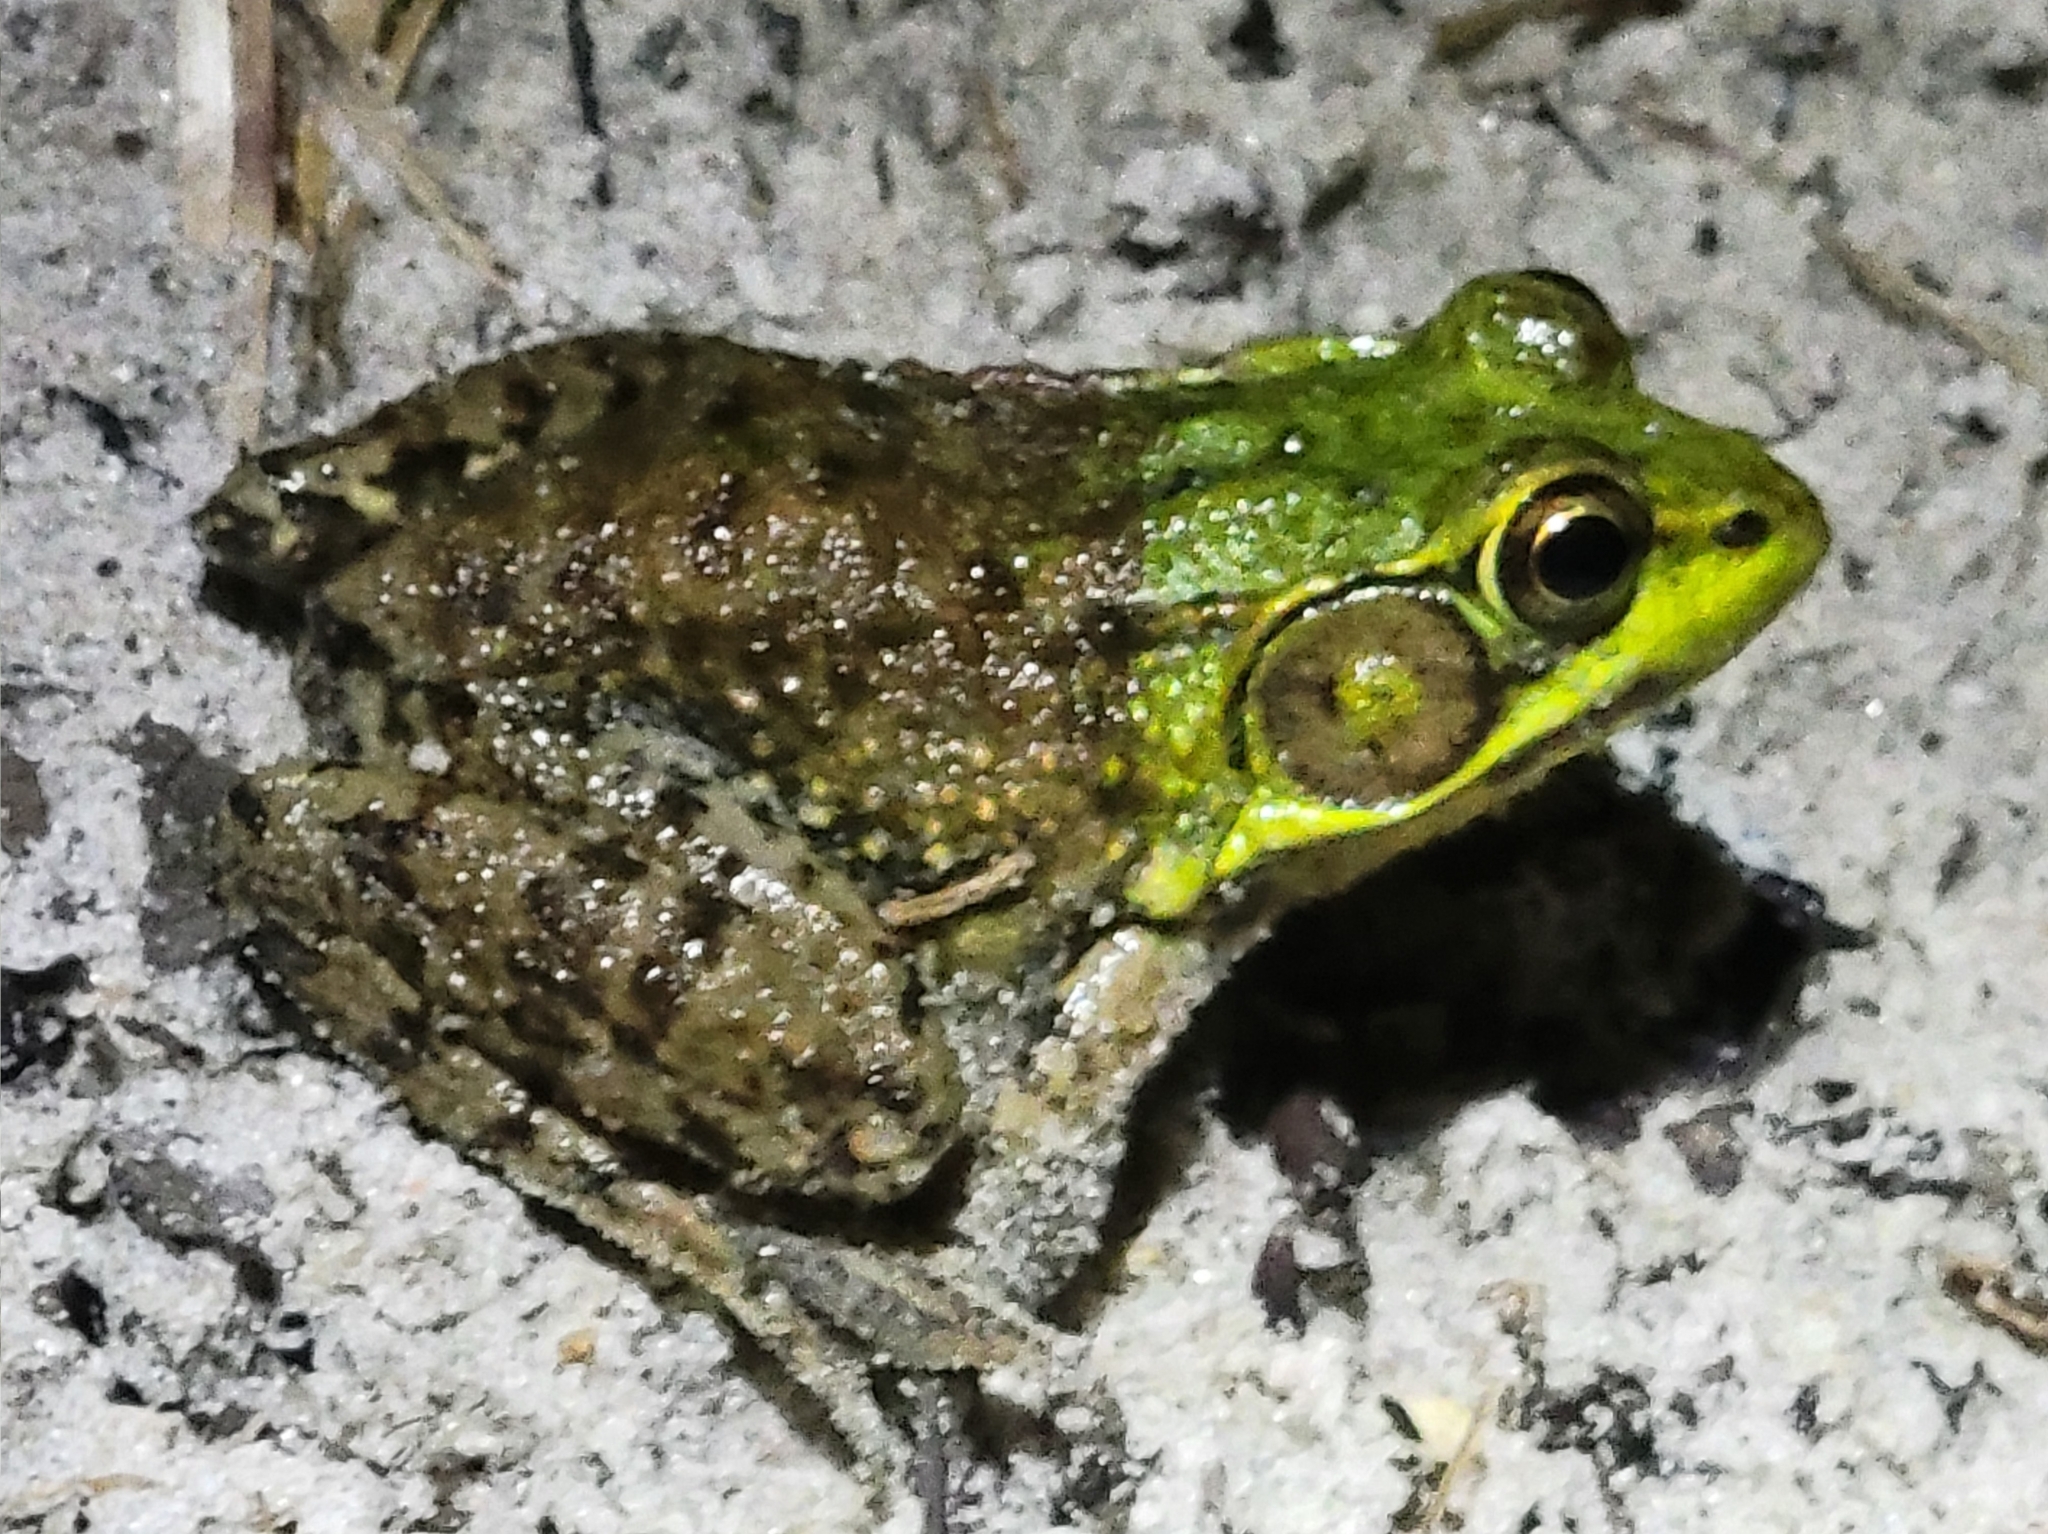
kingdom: Animalia
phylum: Chordata
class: Amphibia
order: Anura
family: Ranidae
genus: Lithobates
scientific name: Lithobates clamitans
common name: Green frog
